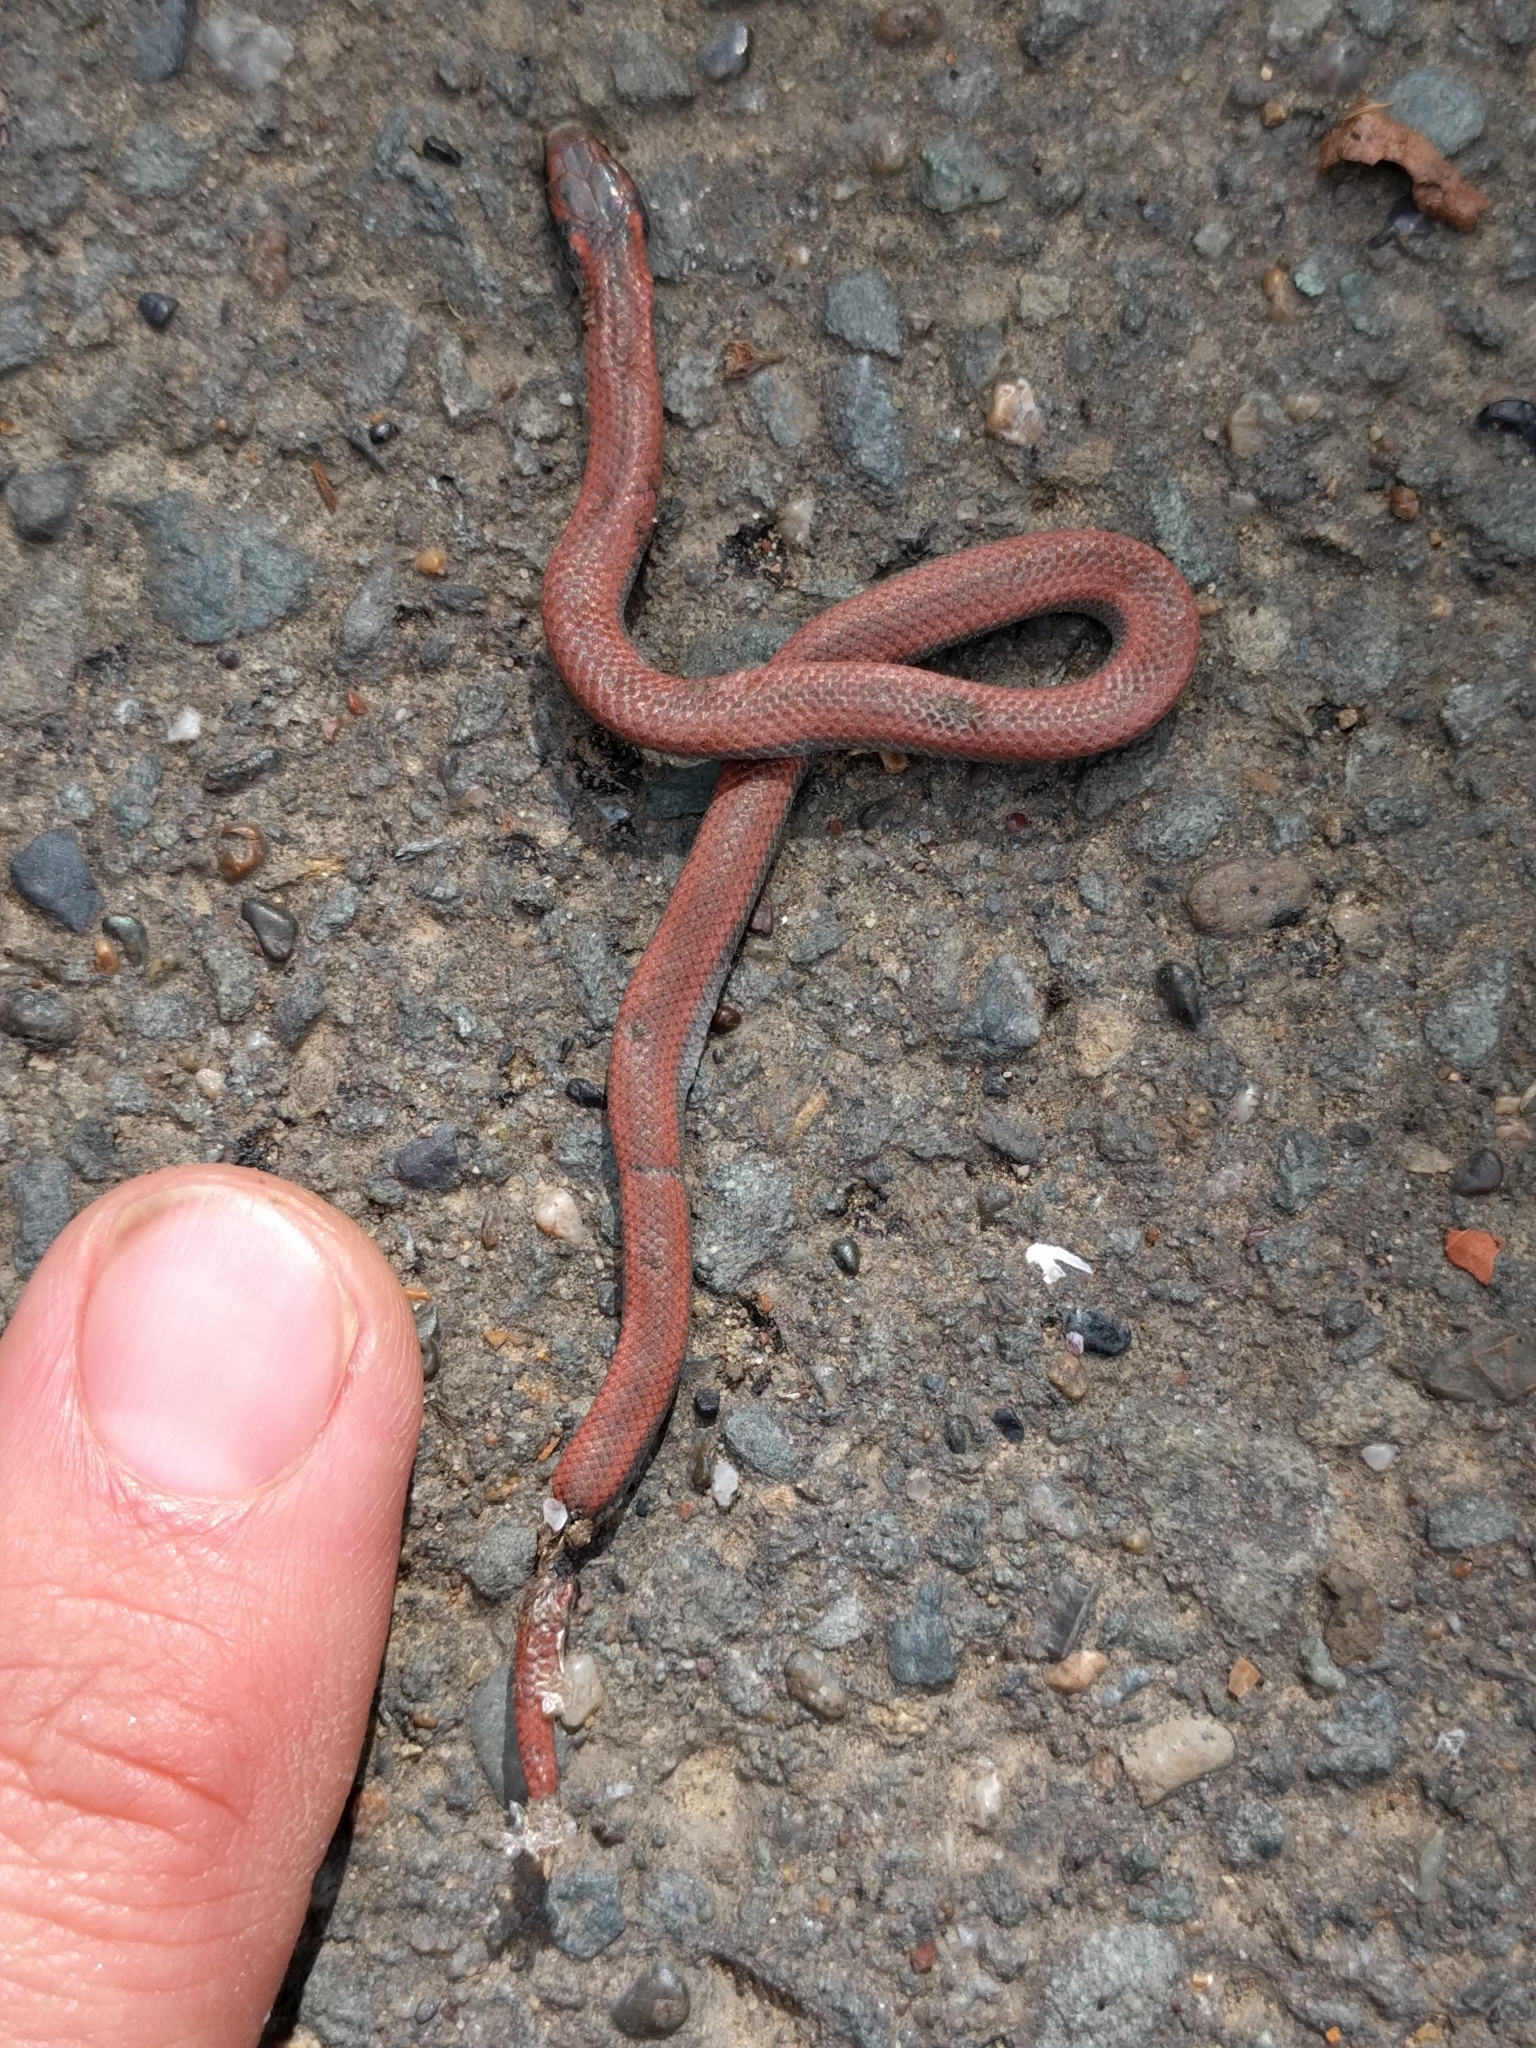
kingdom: Animalia
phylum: Chordata
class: Squamata
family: Colubridae
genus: Contia
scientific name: Contia tenuis
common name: Sharptail snake
